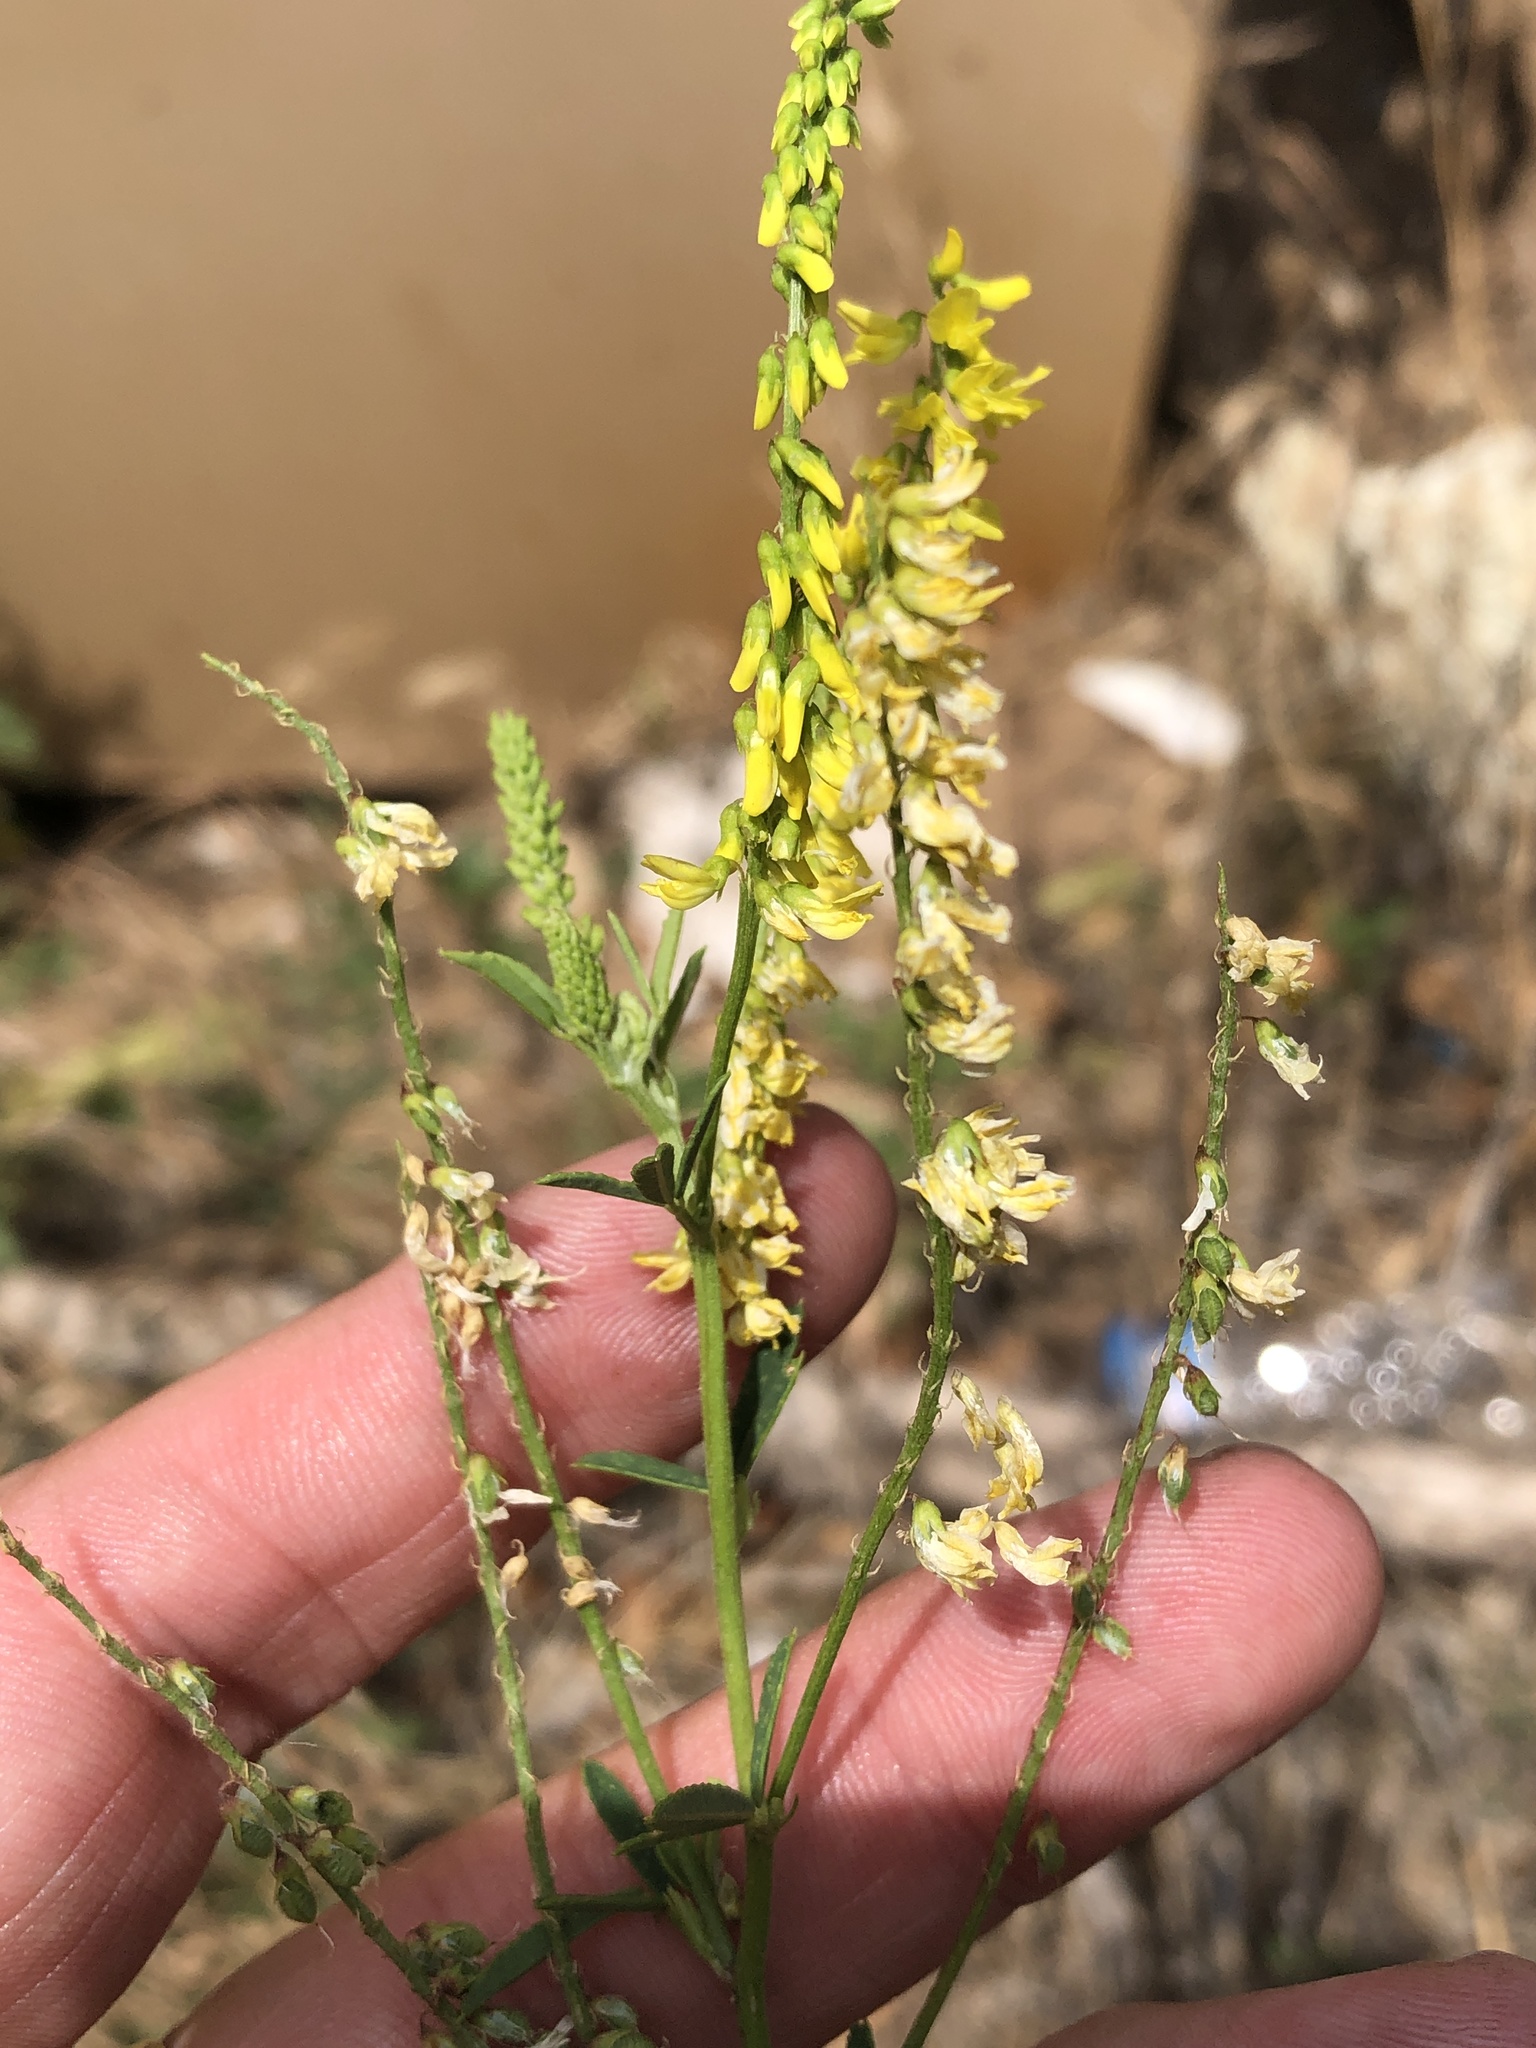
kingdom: Plantae
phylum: Tracheophyta
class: Magnoliopsida
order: Fabales
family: Fabaceae
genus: Melilotus
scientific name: Melilotus officinalis
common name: Sweetclover
